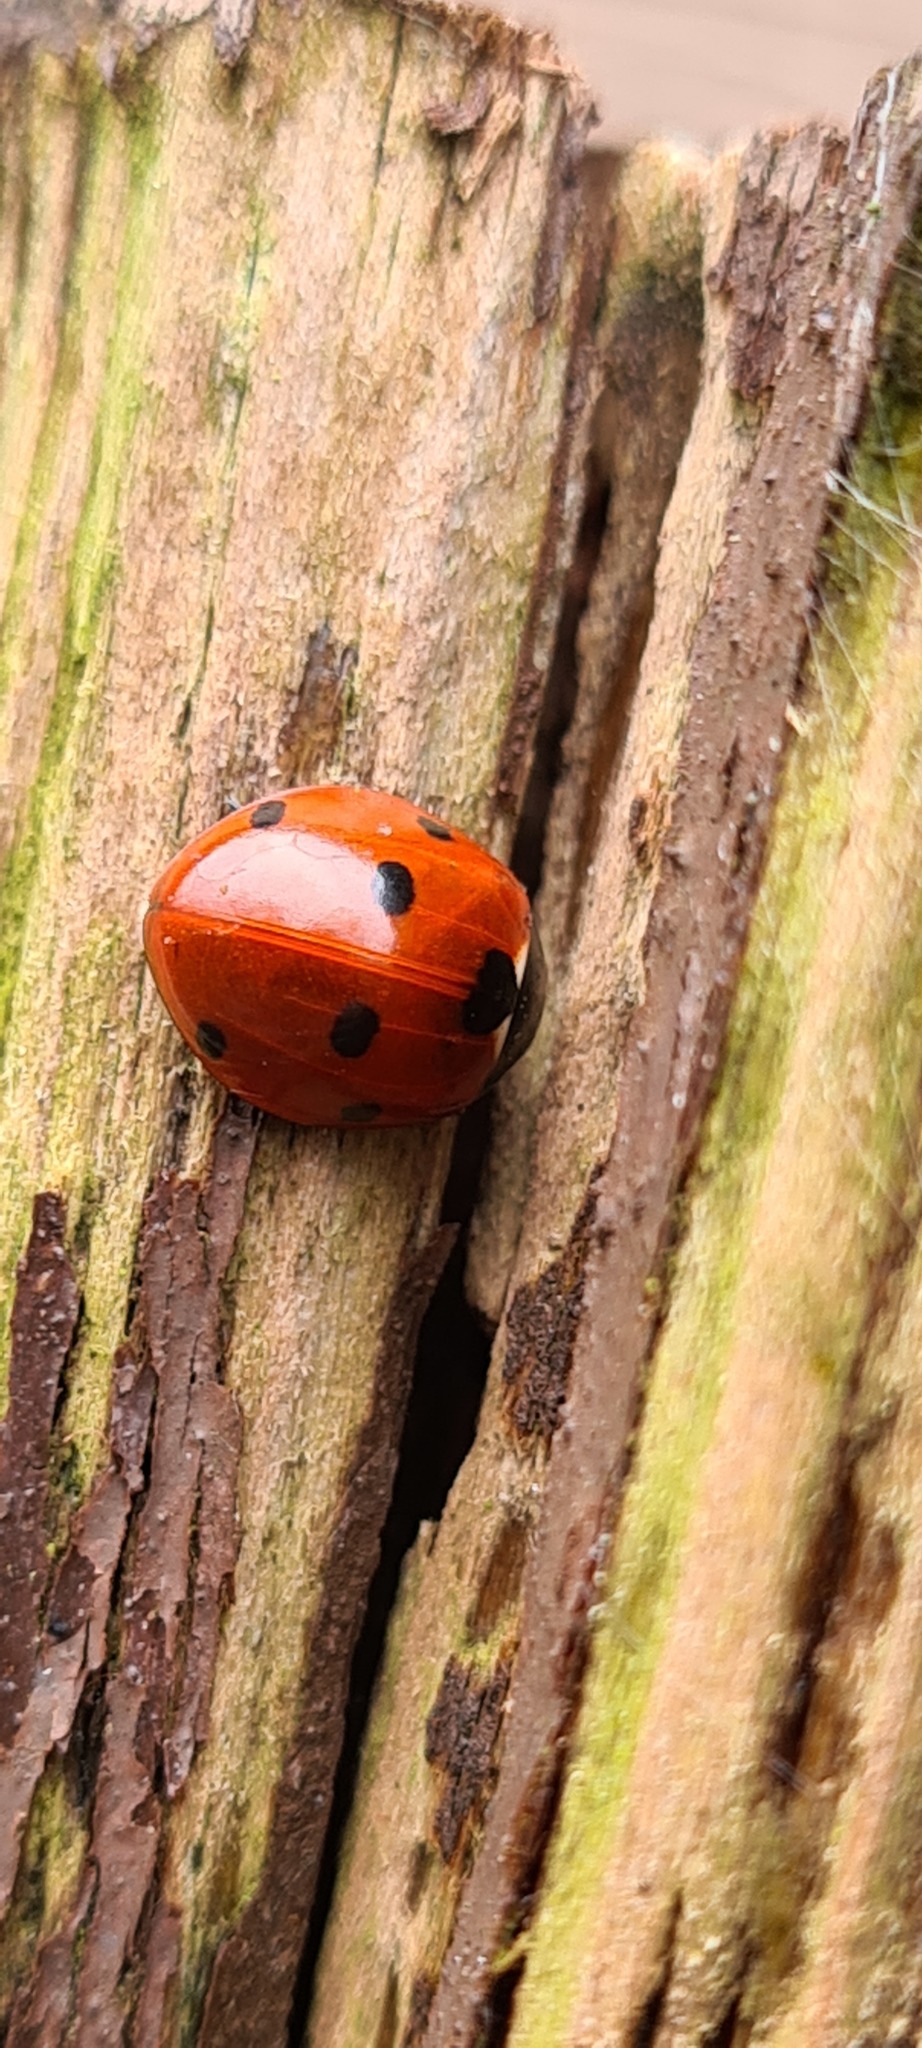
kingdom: Animalia
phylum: Arthropoda
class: Insecta
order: Coleoptera
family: Coccinellidae
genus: Coccinella
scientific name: Coccinella septempunctata
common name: Sevenspotted lady beetle
